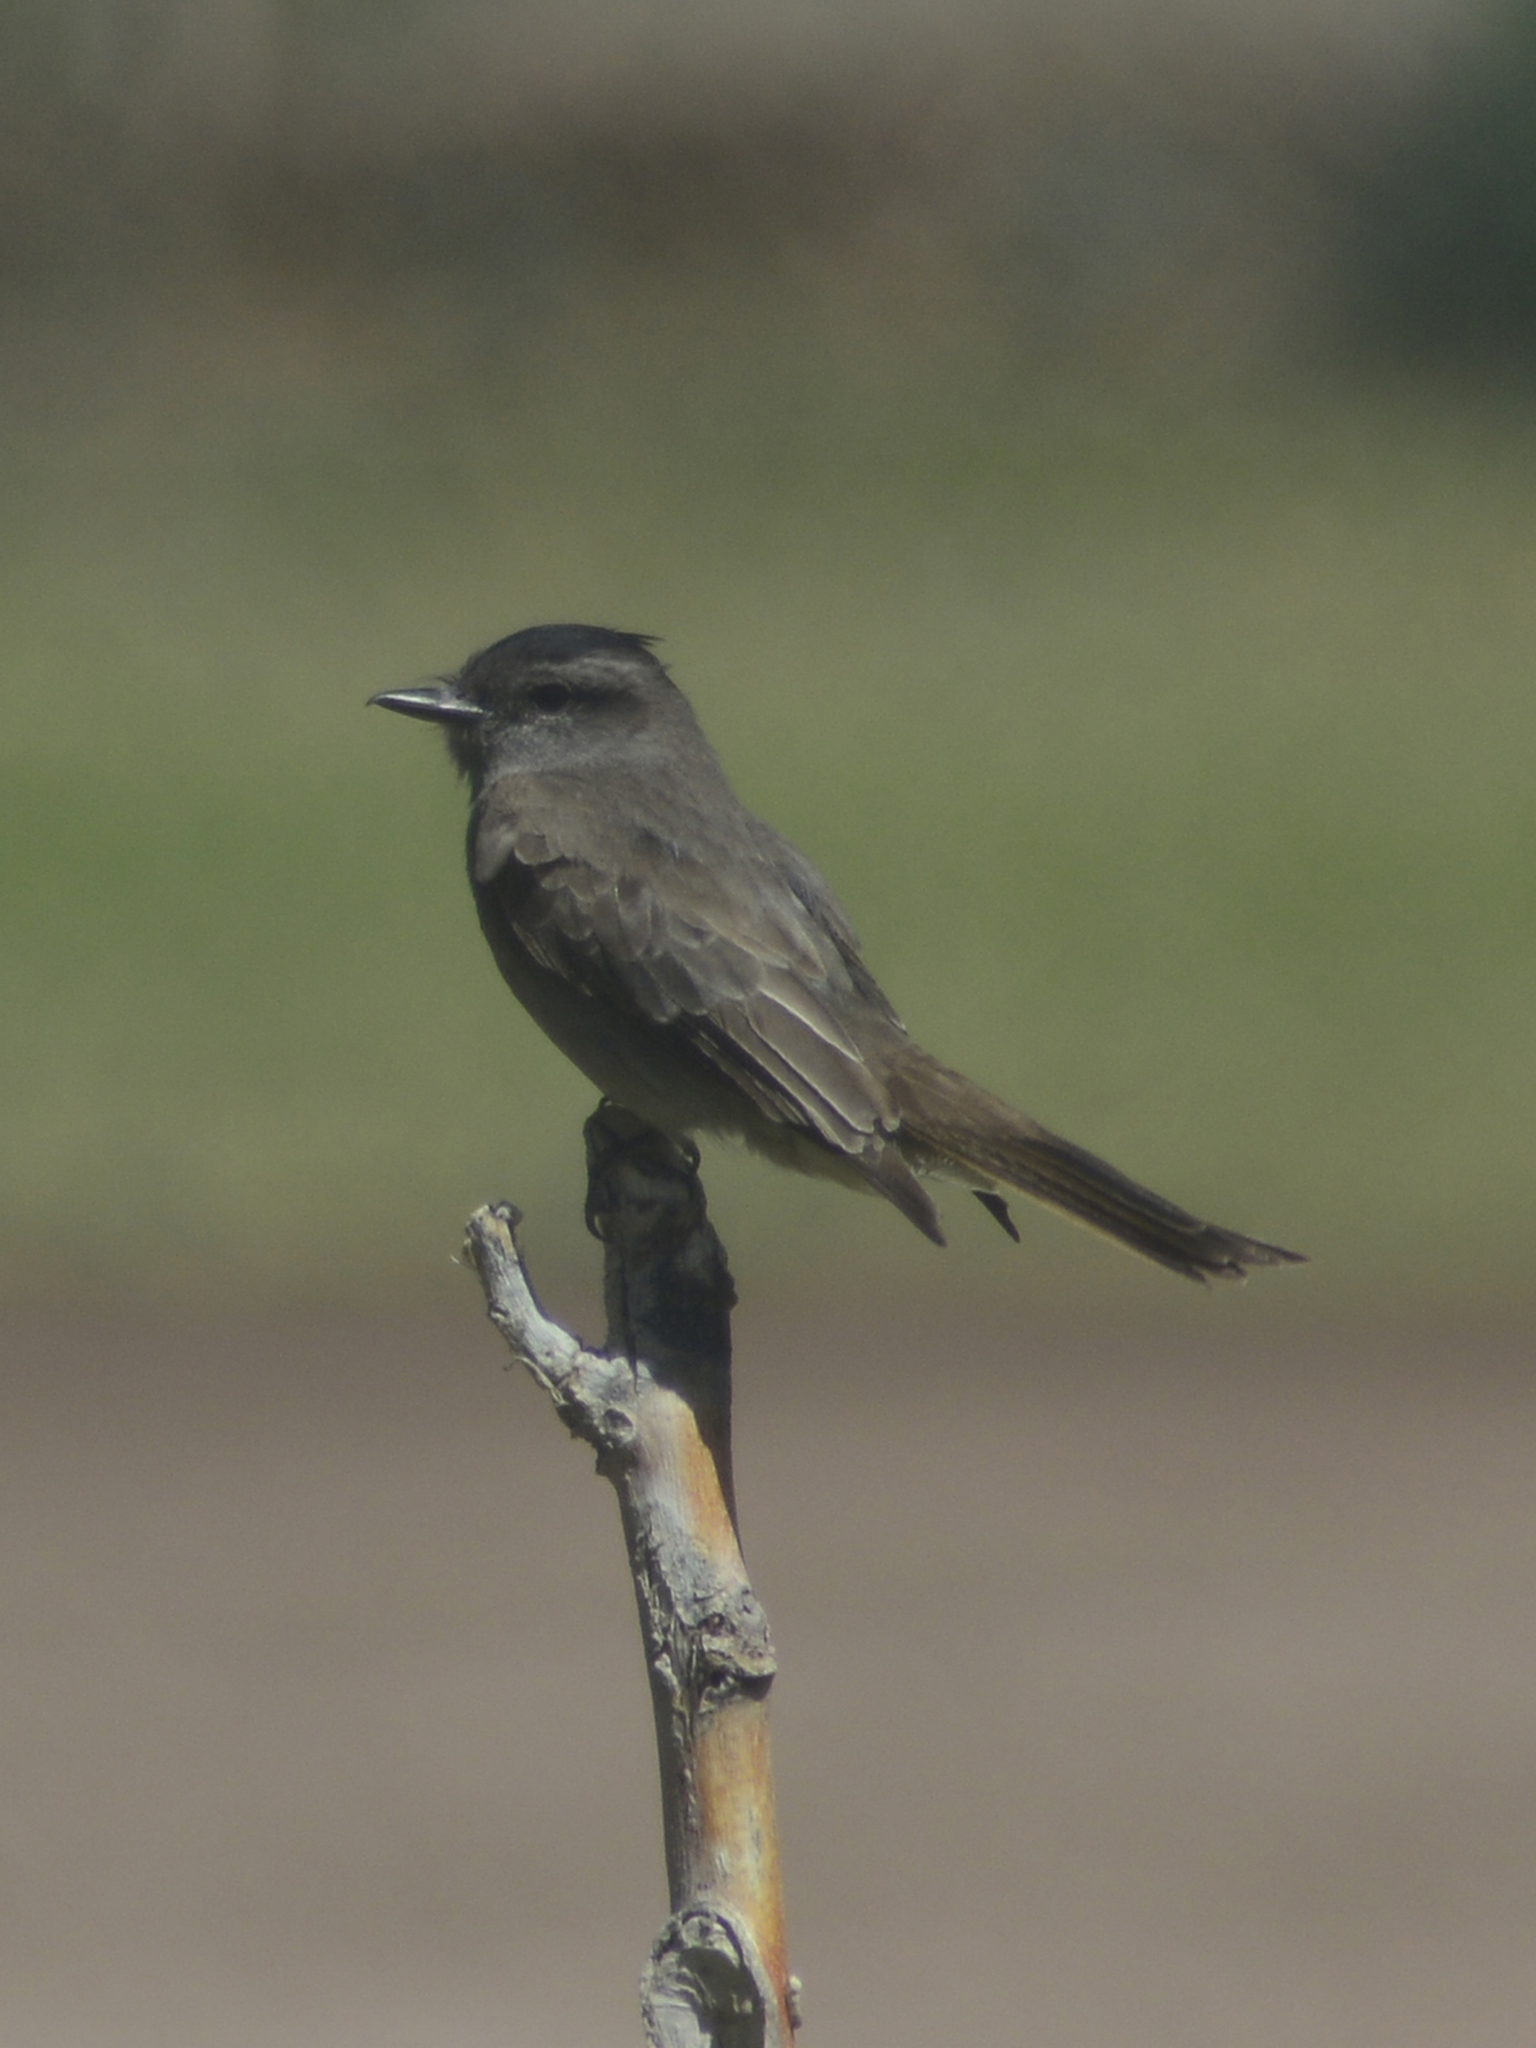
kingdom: Animalia
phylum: Chordata
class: Aves
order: Passeriformes
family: Tyrannidae
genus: Empidonomus
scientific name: Empidonomus aurantioatrocristatus
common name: Crowned slaty flycatcher
